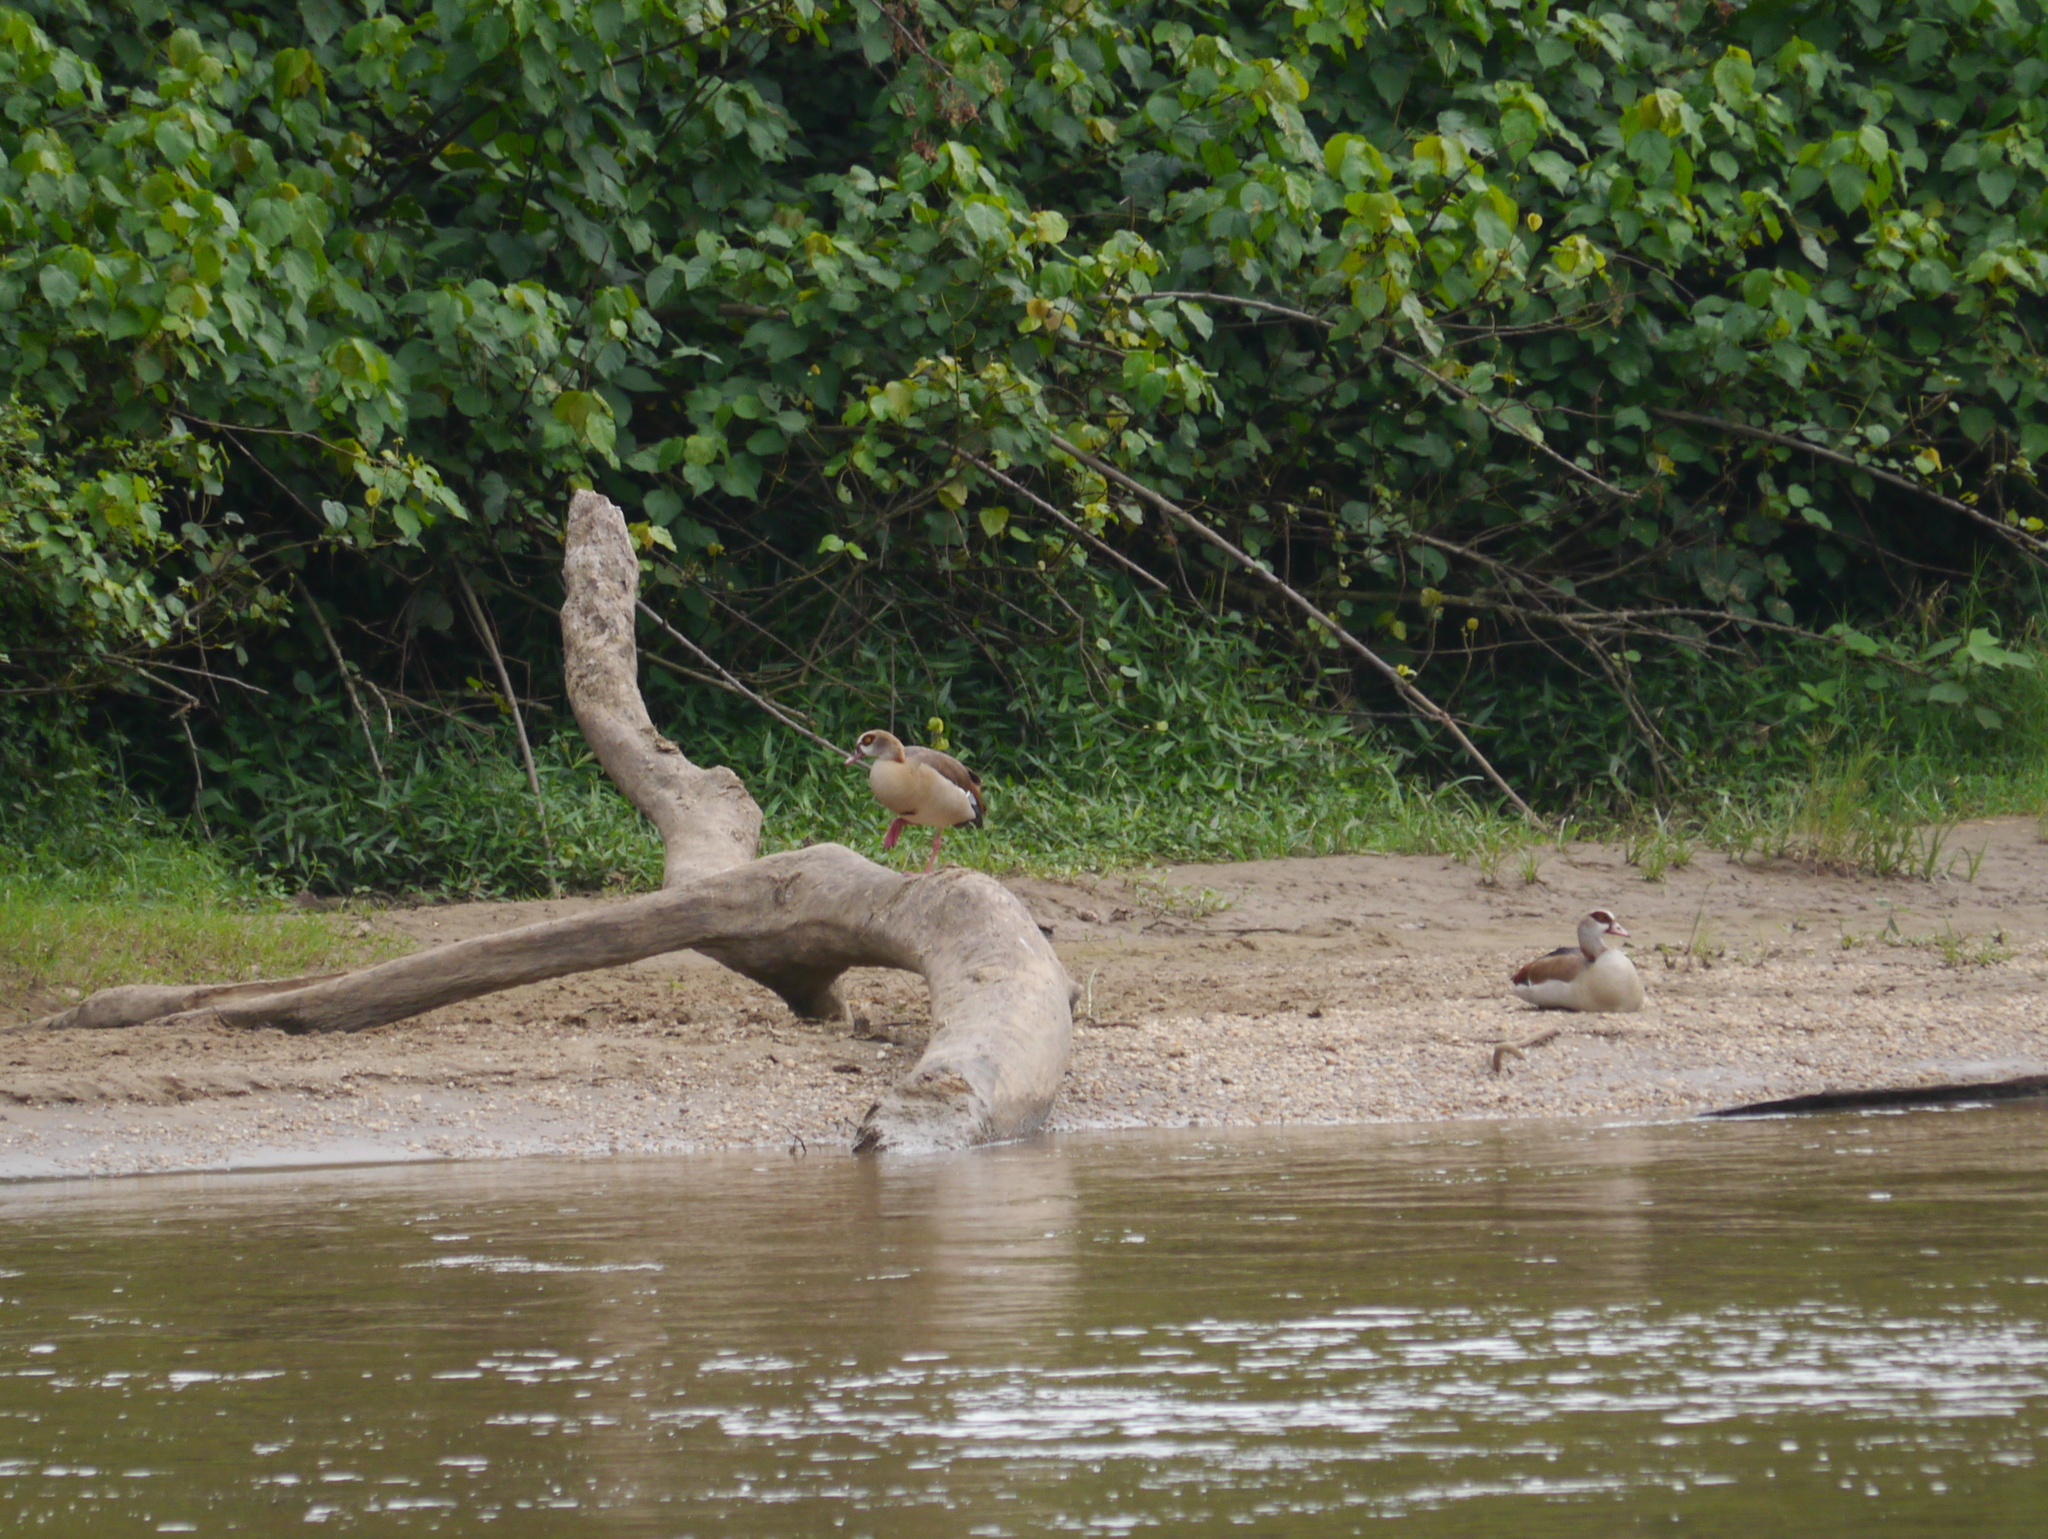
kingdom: Animalia
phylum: Chordata
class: Aves
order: Anseriformes
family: Anatidae
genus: Alopochen
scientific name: Alopochen aegyptiaca
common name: Egyptian goose
